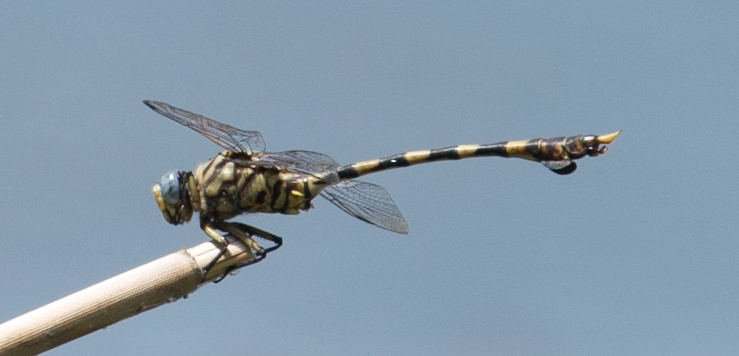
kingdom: Animalia
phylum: Arthropoda
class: Insecta
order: Odonata
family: Gomphidae
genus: Ictinogomphus
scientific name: Ictinogomphus ferox
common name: Common tiger
